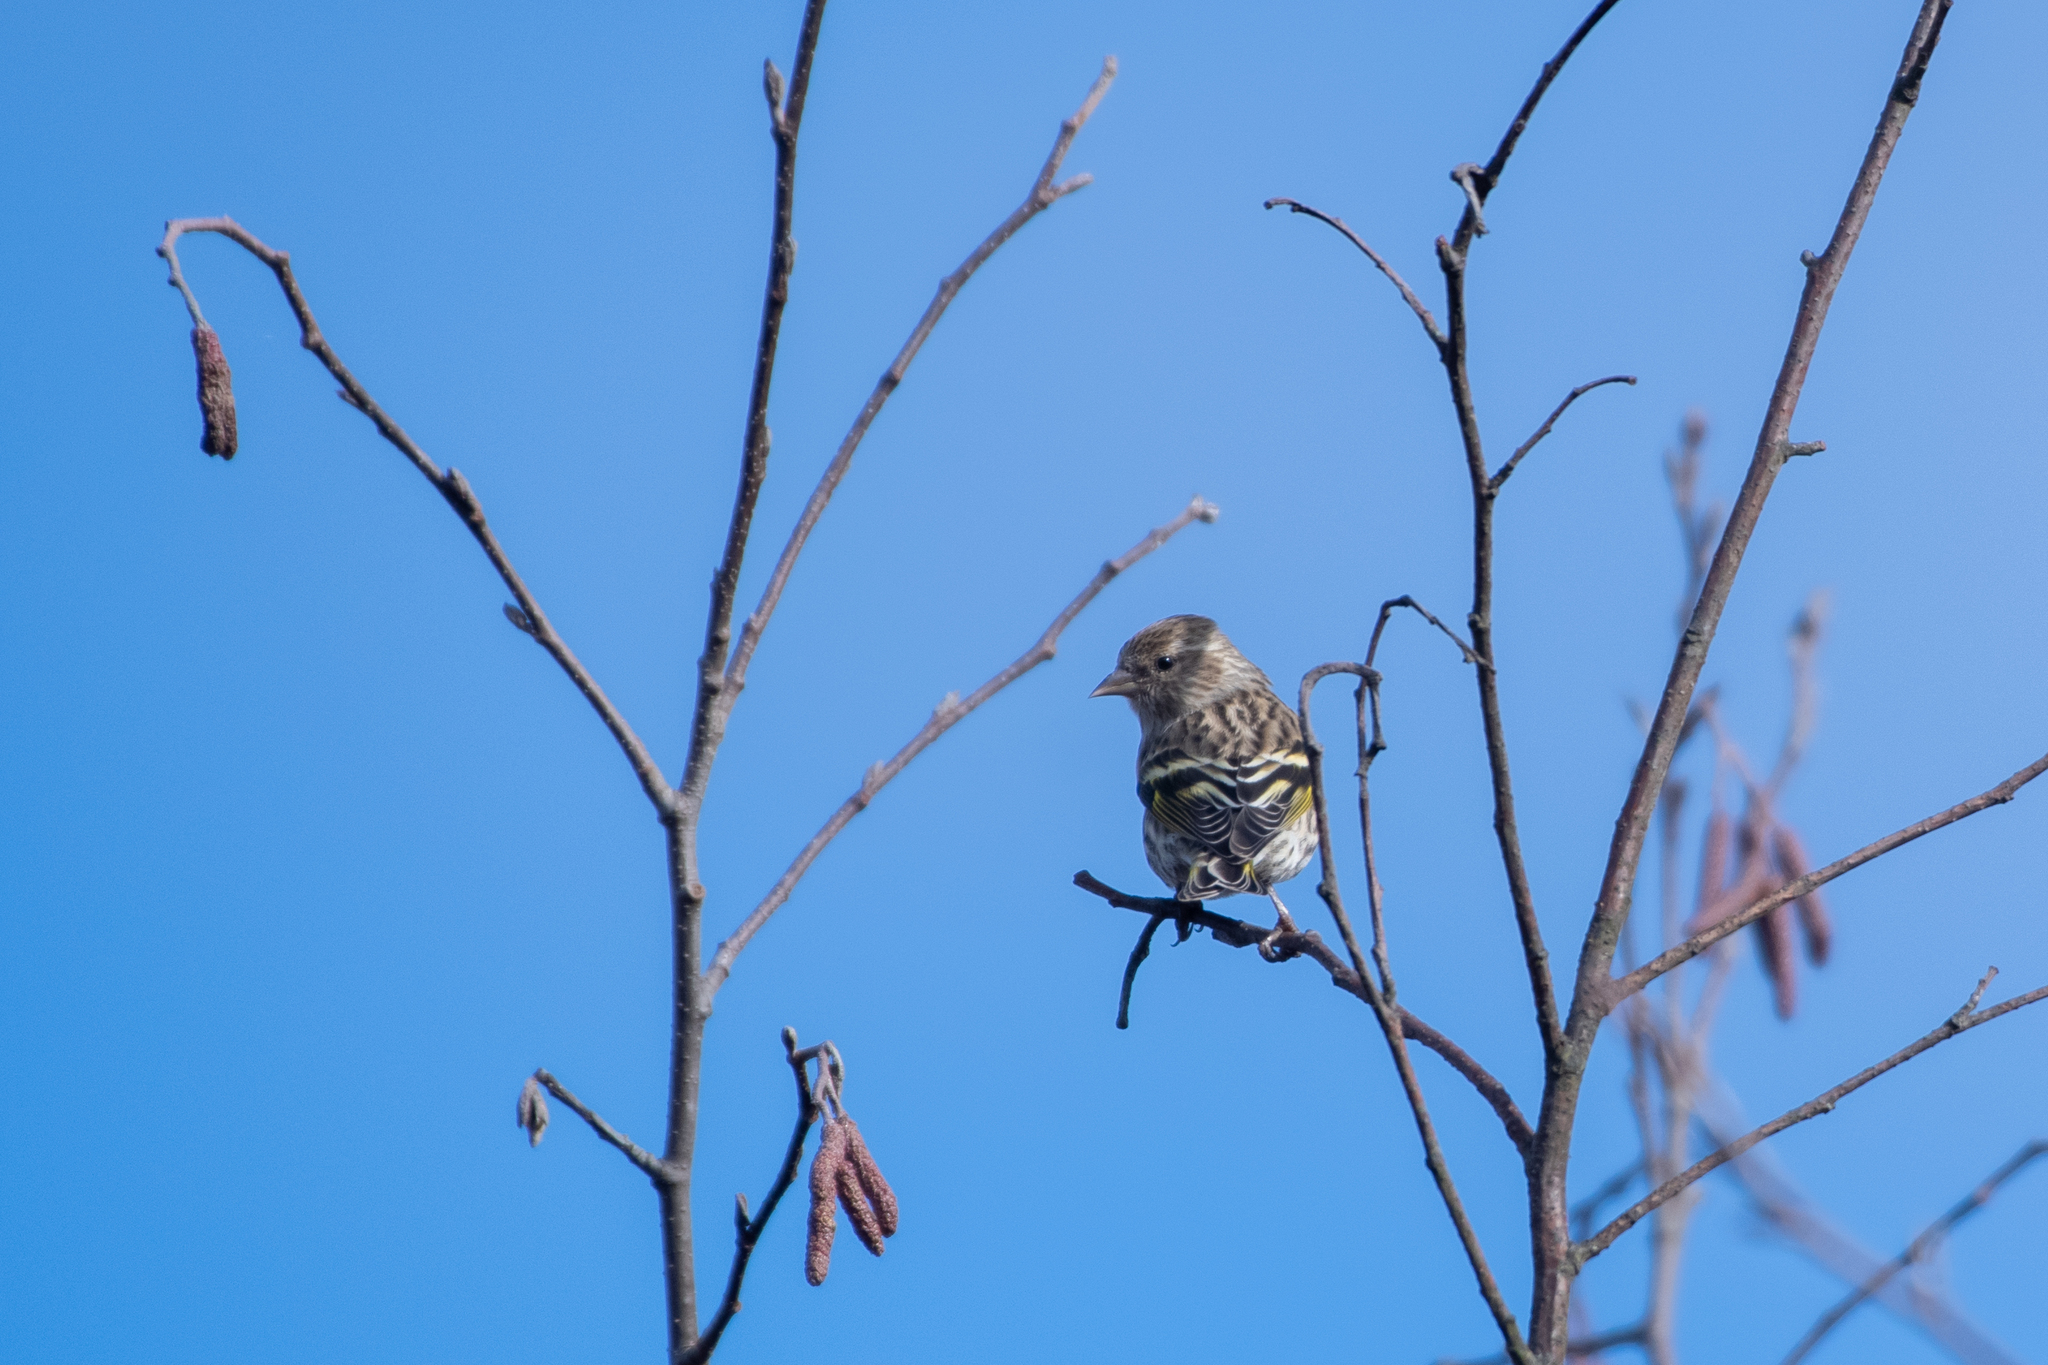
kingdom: Animalia
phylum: Chordata
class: Aves
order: Passeriformes
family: Fringillidae
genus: Spinus
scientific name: Spinus pinus
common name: Pine siskin
